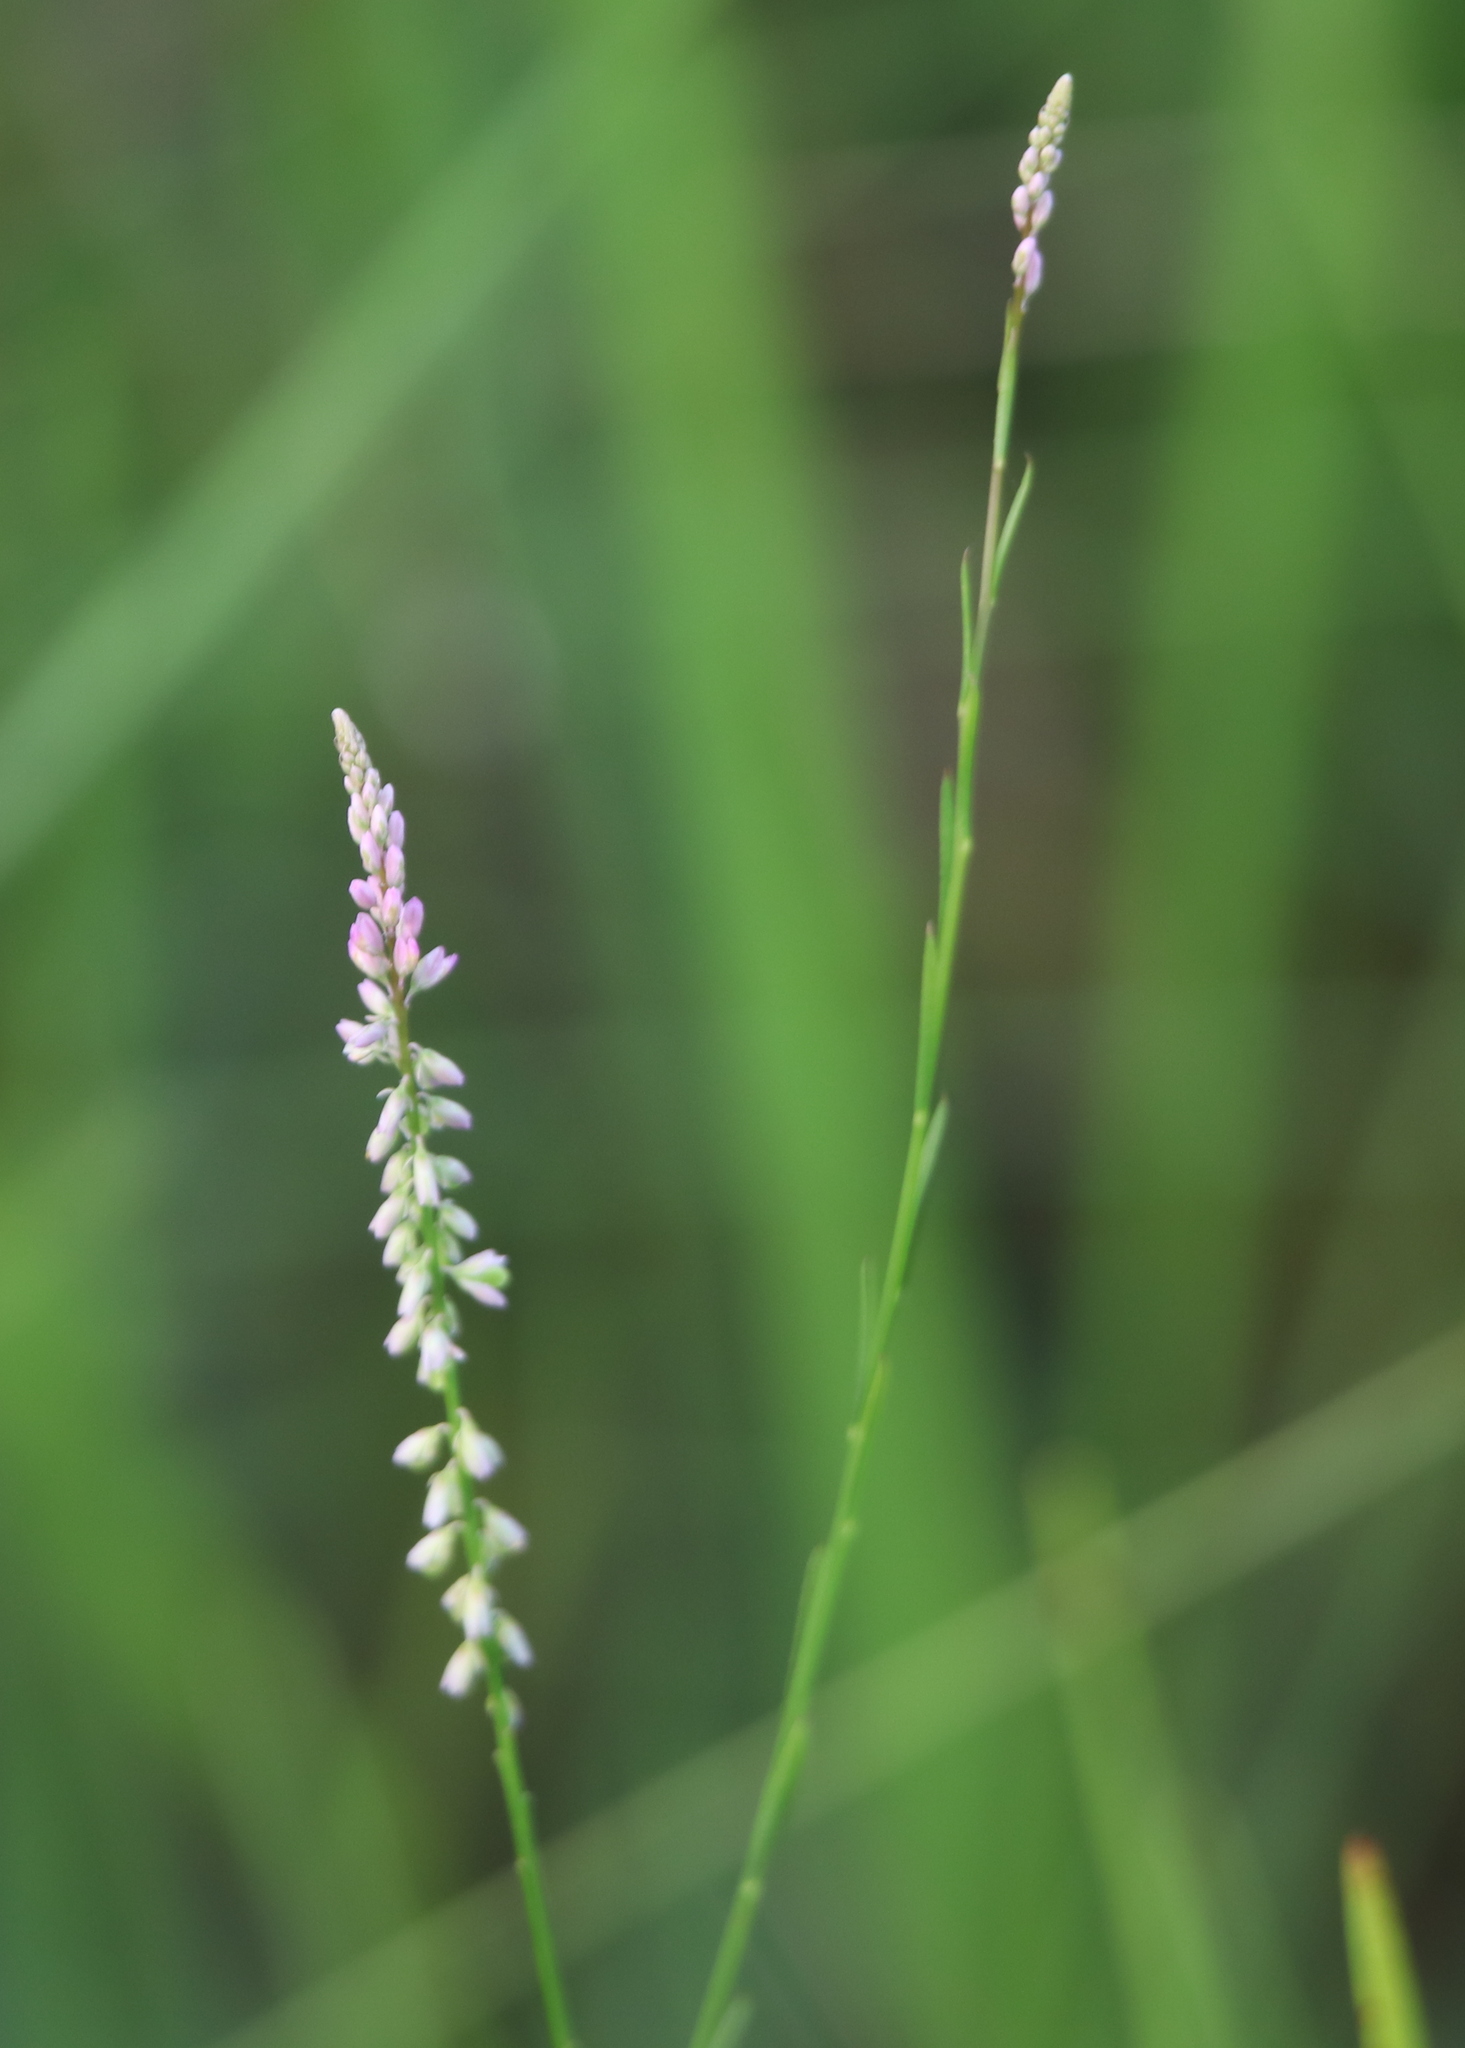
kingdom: Plantae
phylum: Tracheophyta
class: Magnoliopsida
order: Fabales
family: Polygalaceae
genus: Polygala
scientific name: Polygala tenella
